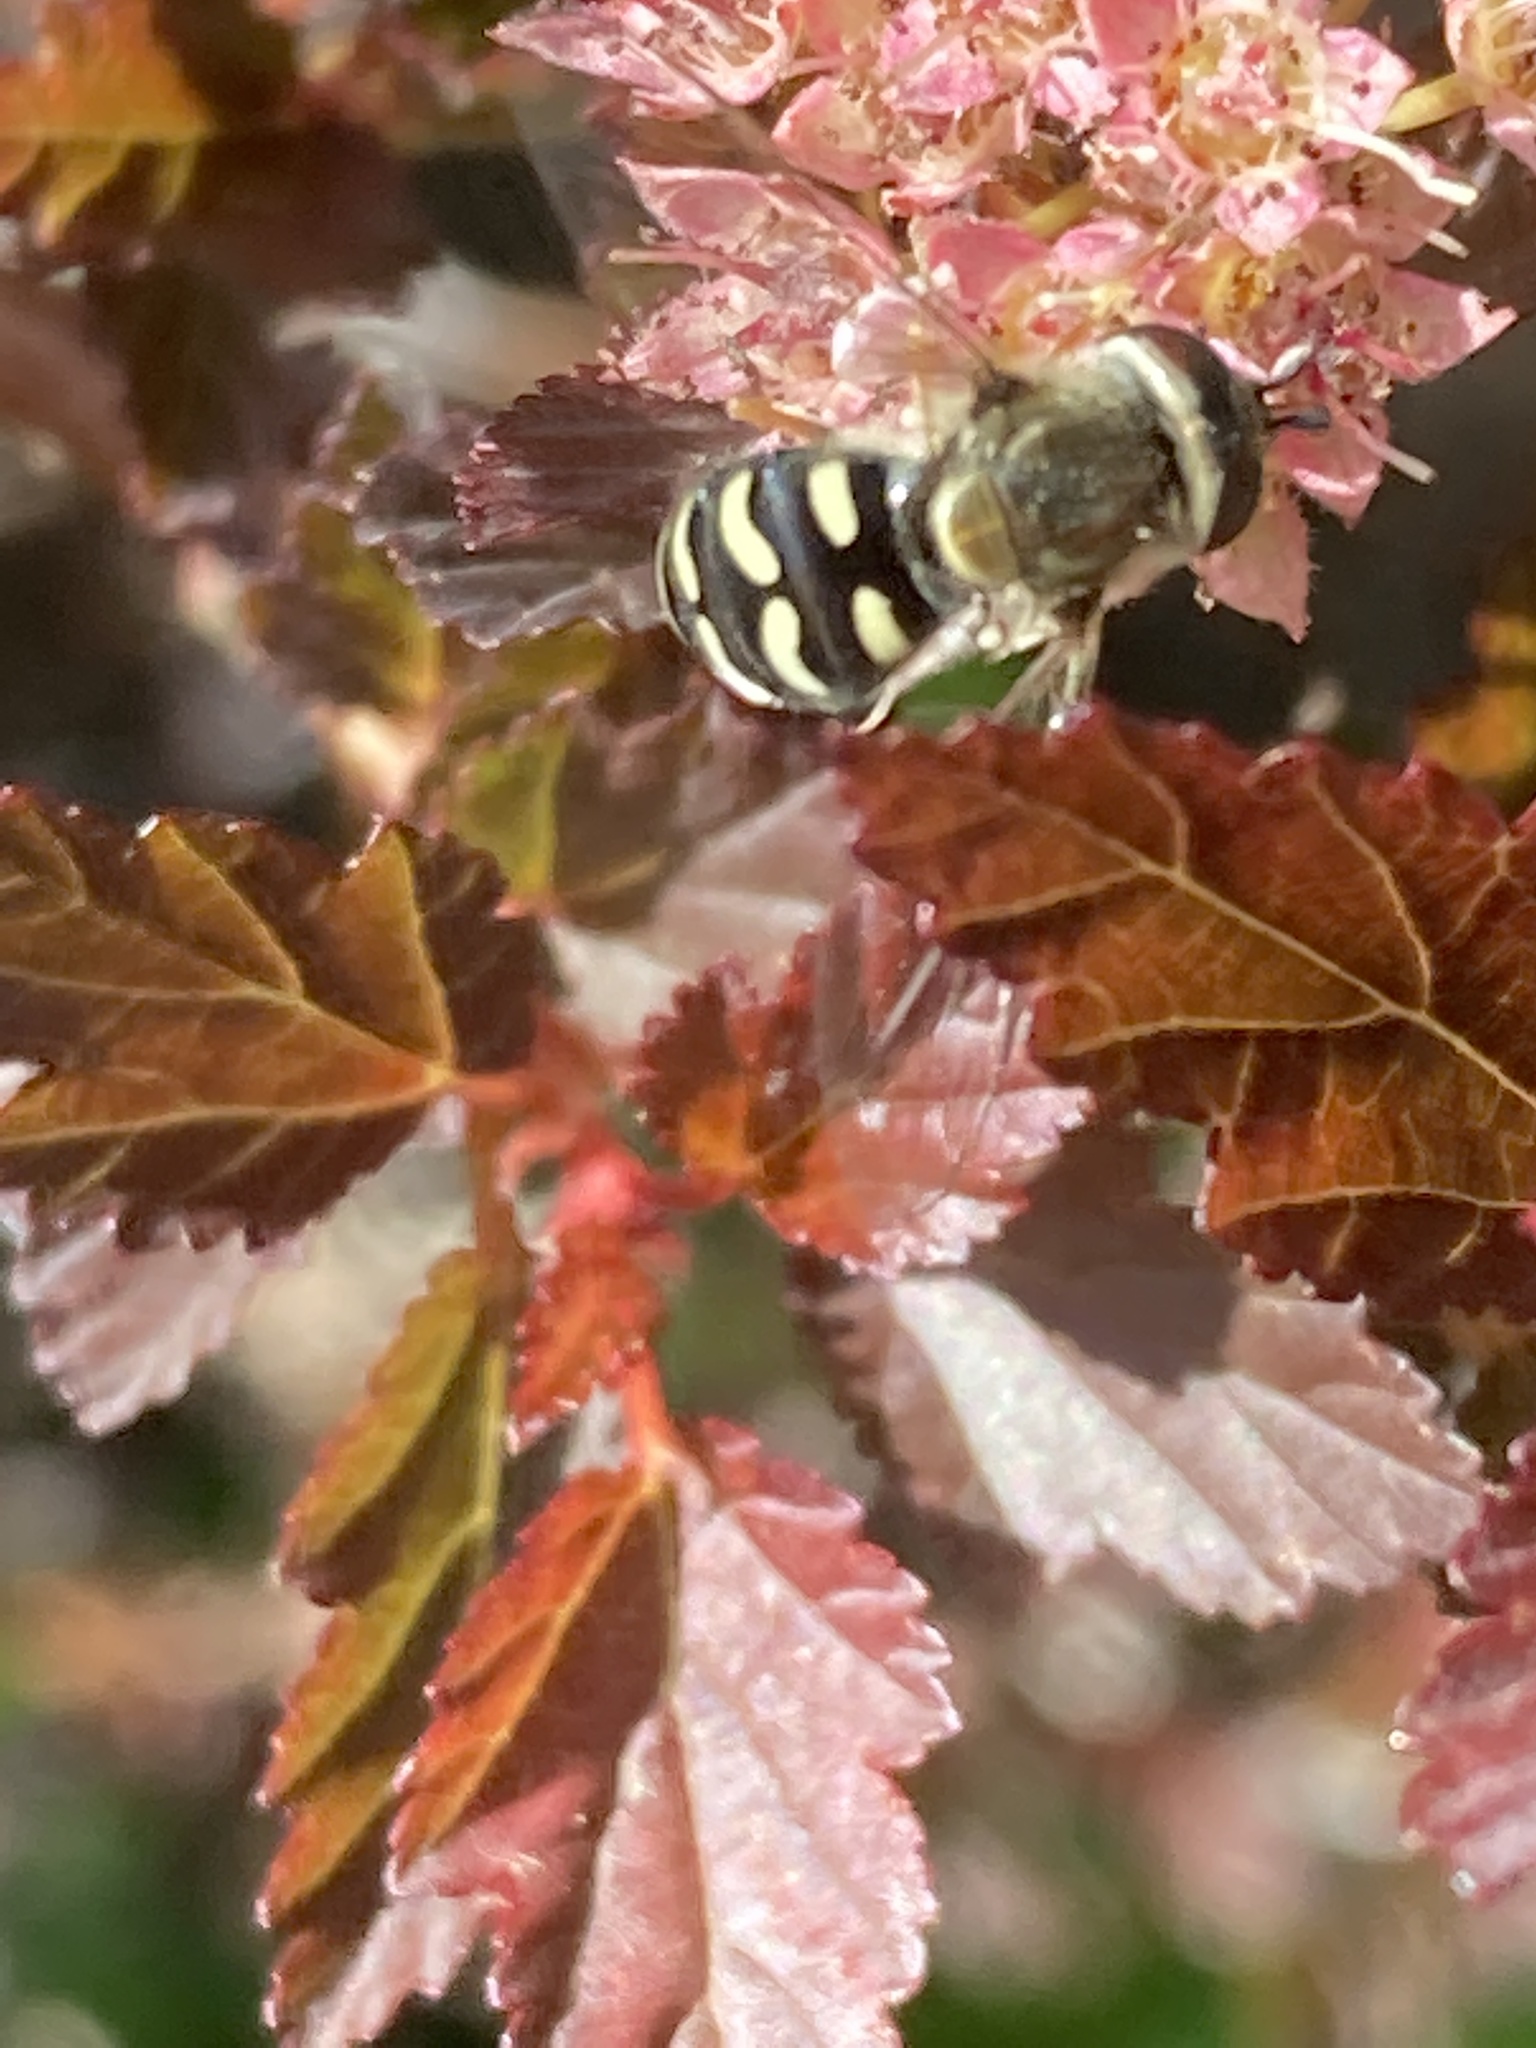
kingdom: Animalia
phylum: Arthropoda
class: Insecta
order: Diptera
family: Syrphidae
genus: Eupeodes
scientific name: Eupeodes volucris
